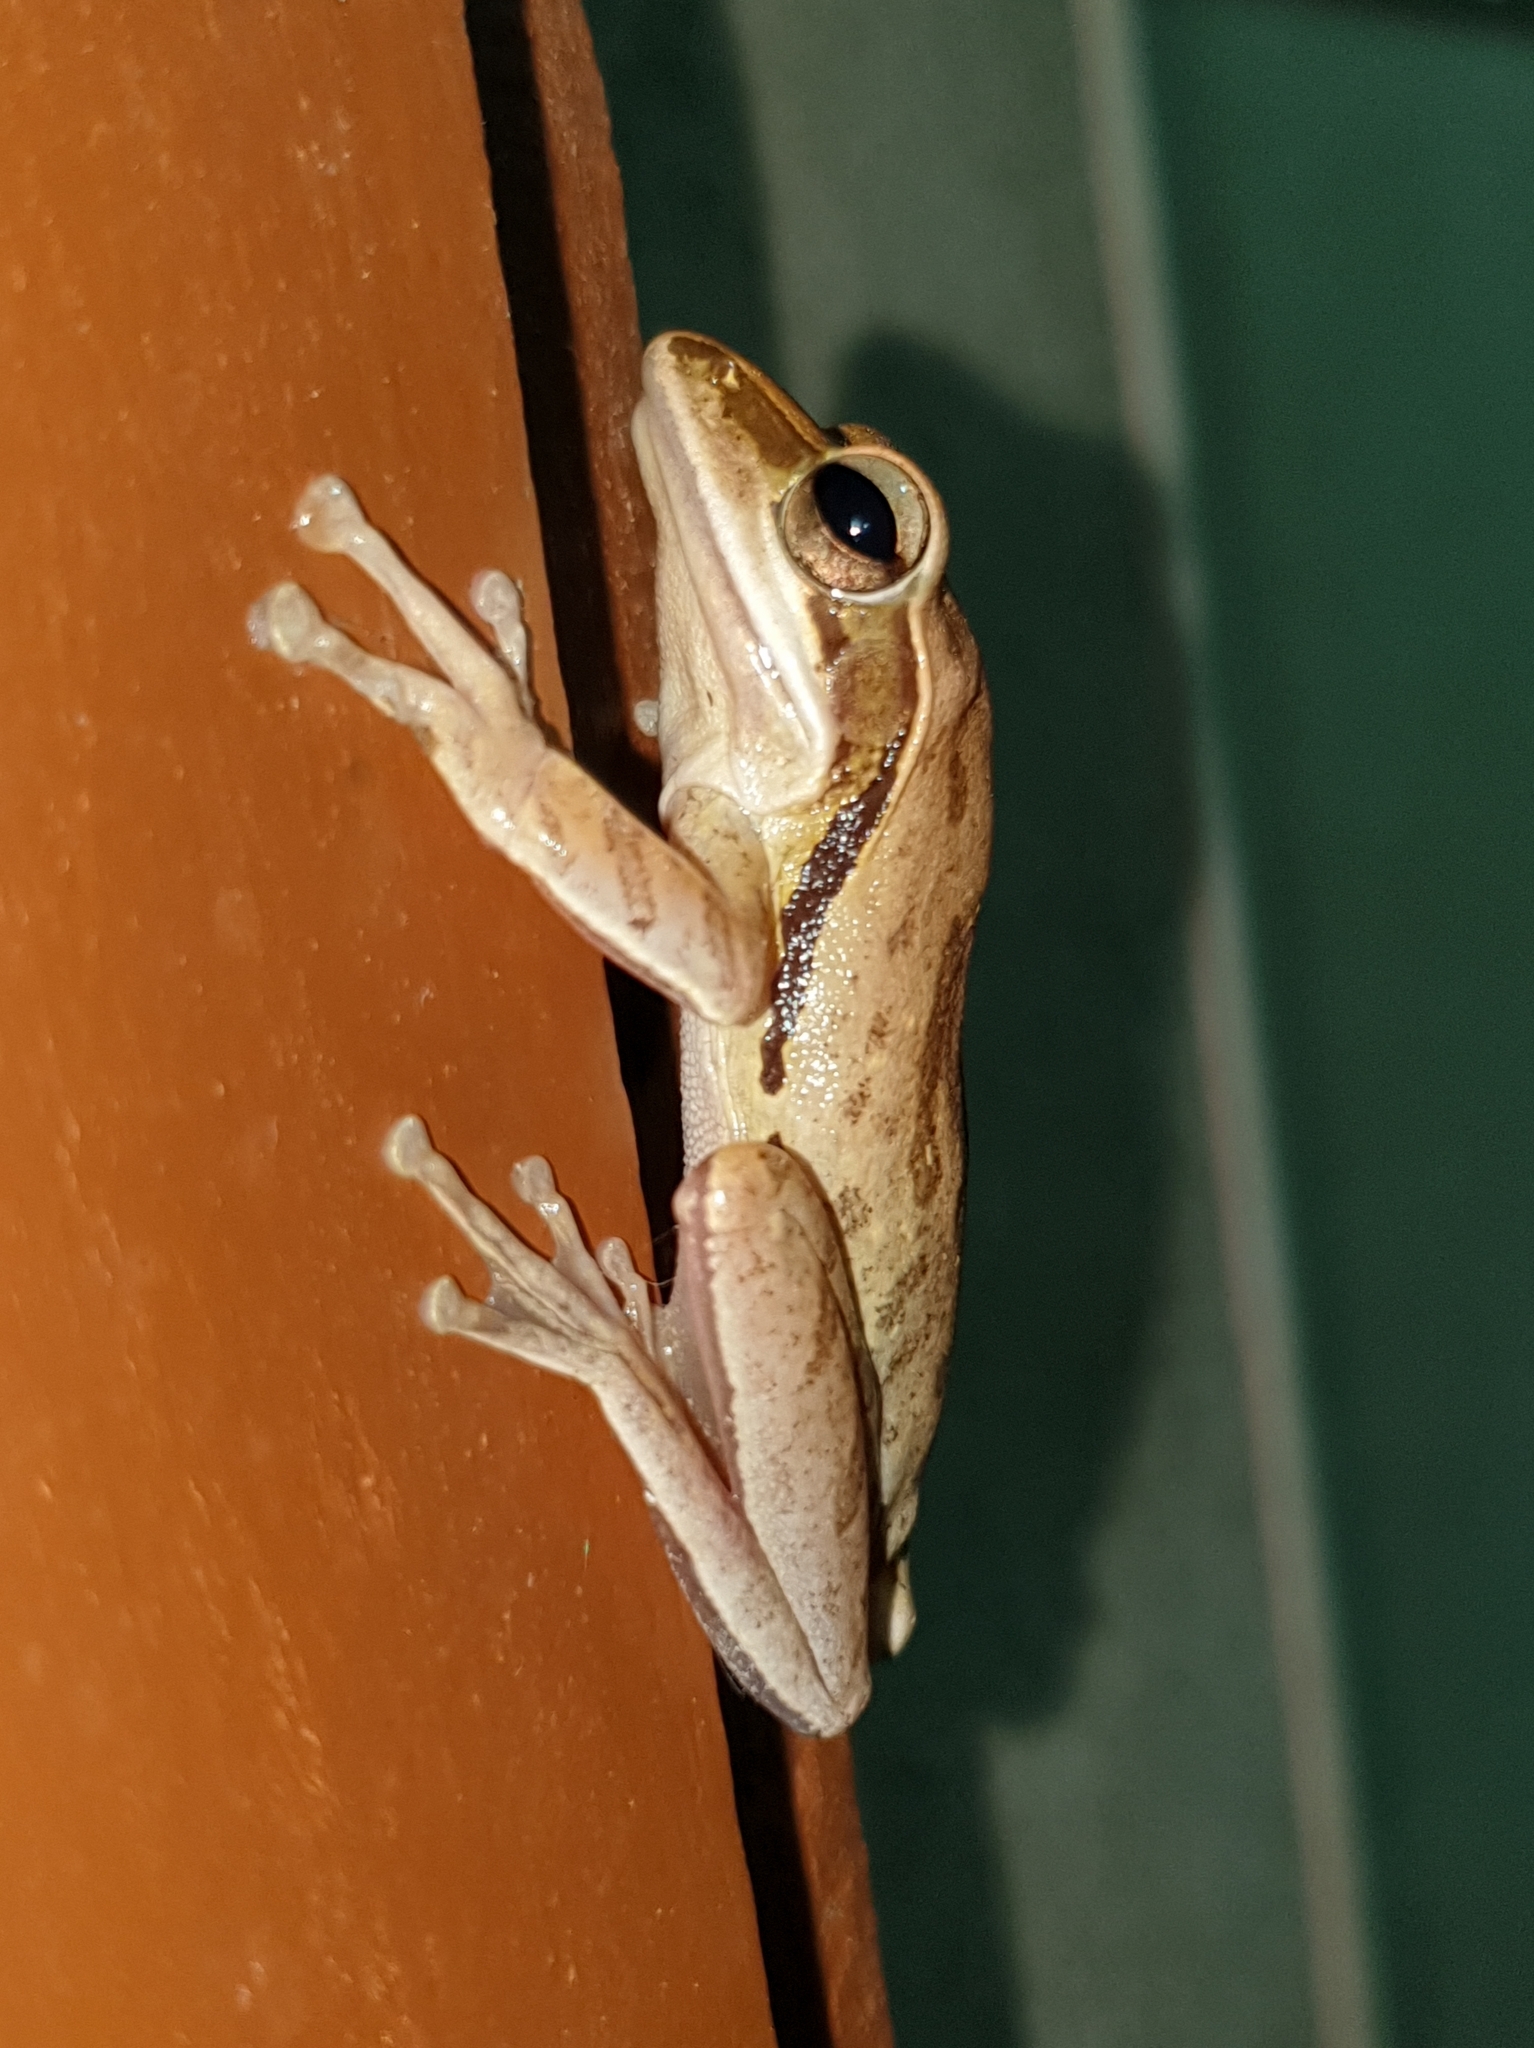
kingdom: Animalia
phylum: Chordata
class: Amphibia
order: Anura
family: Rhacophoridae
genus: Polypedates
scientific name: Polypedates maculatus
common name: Himalayan tree frog
